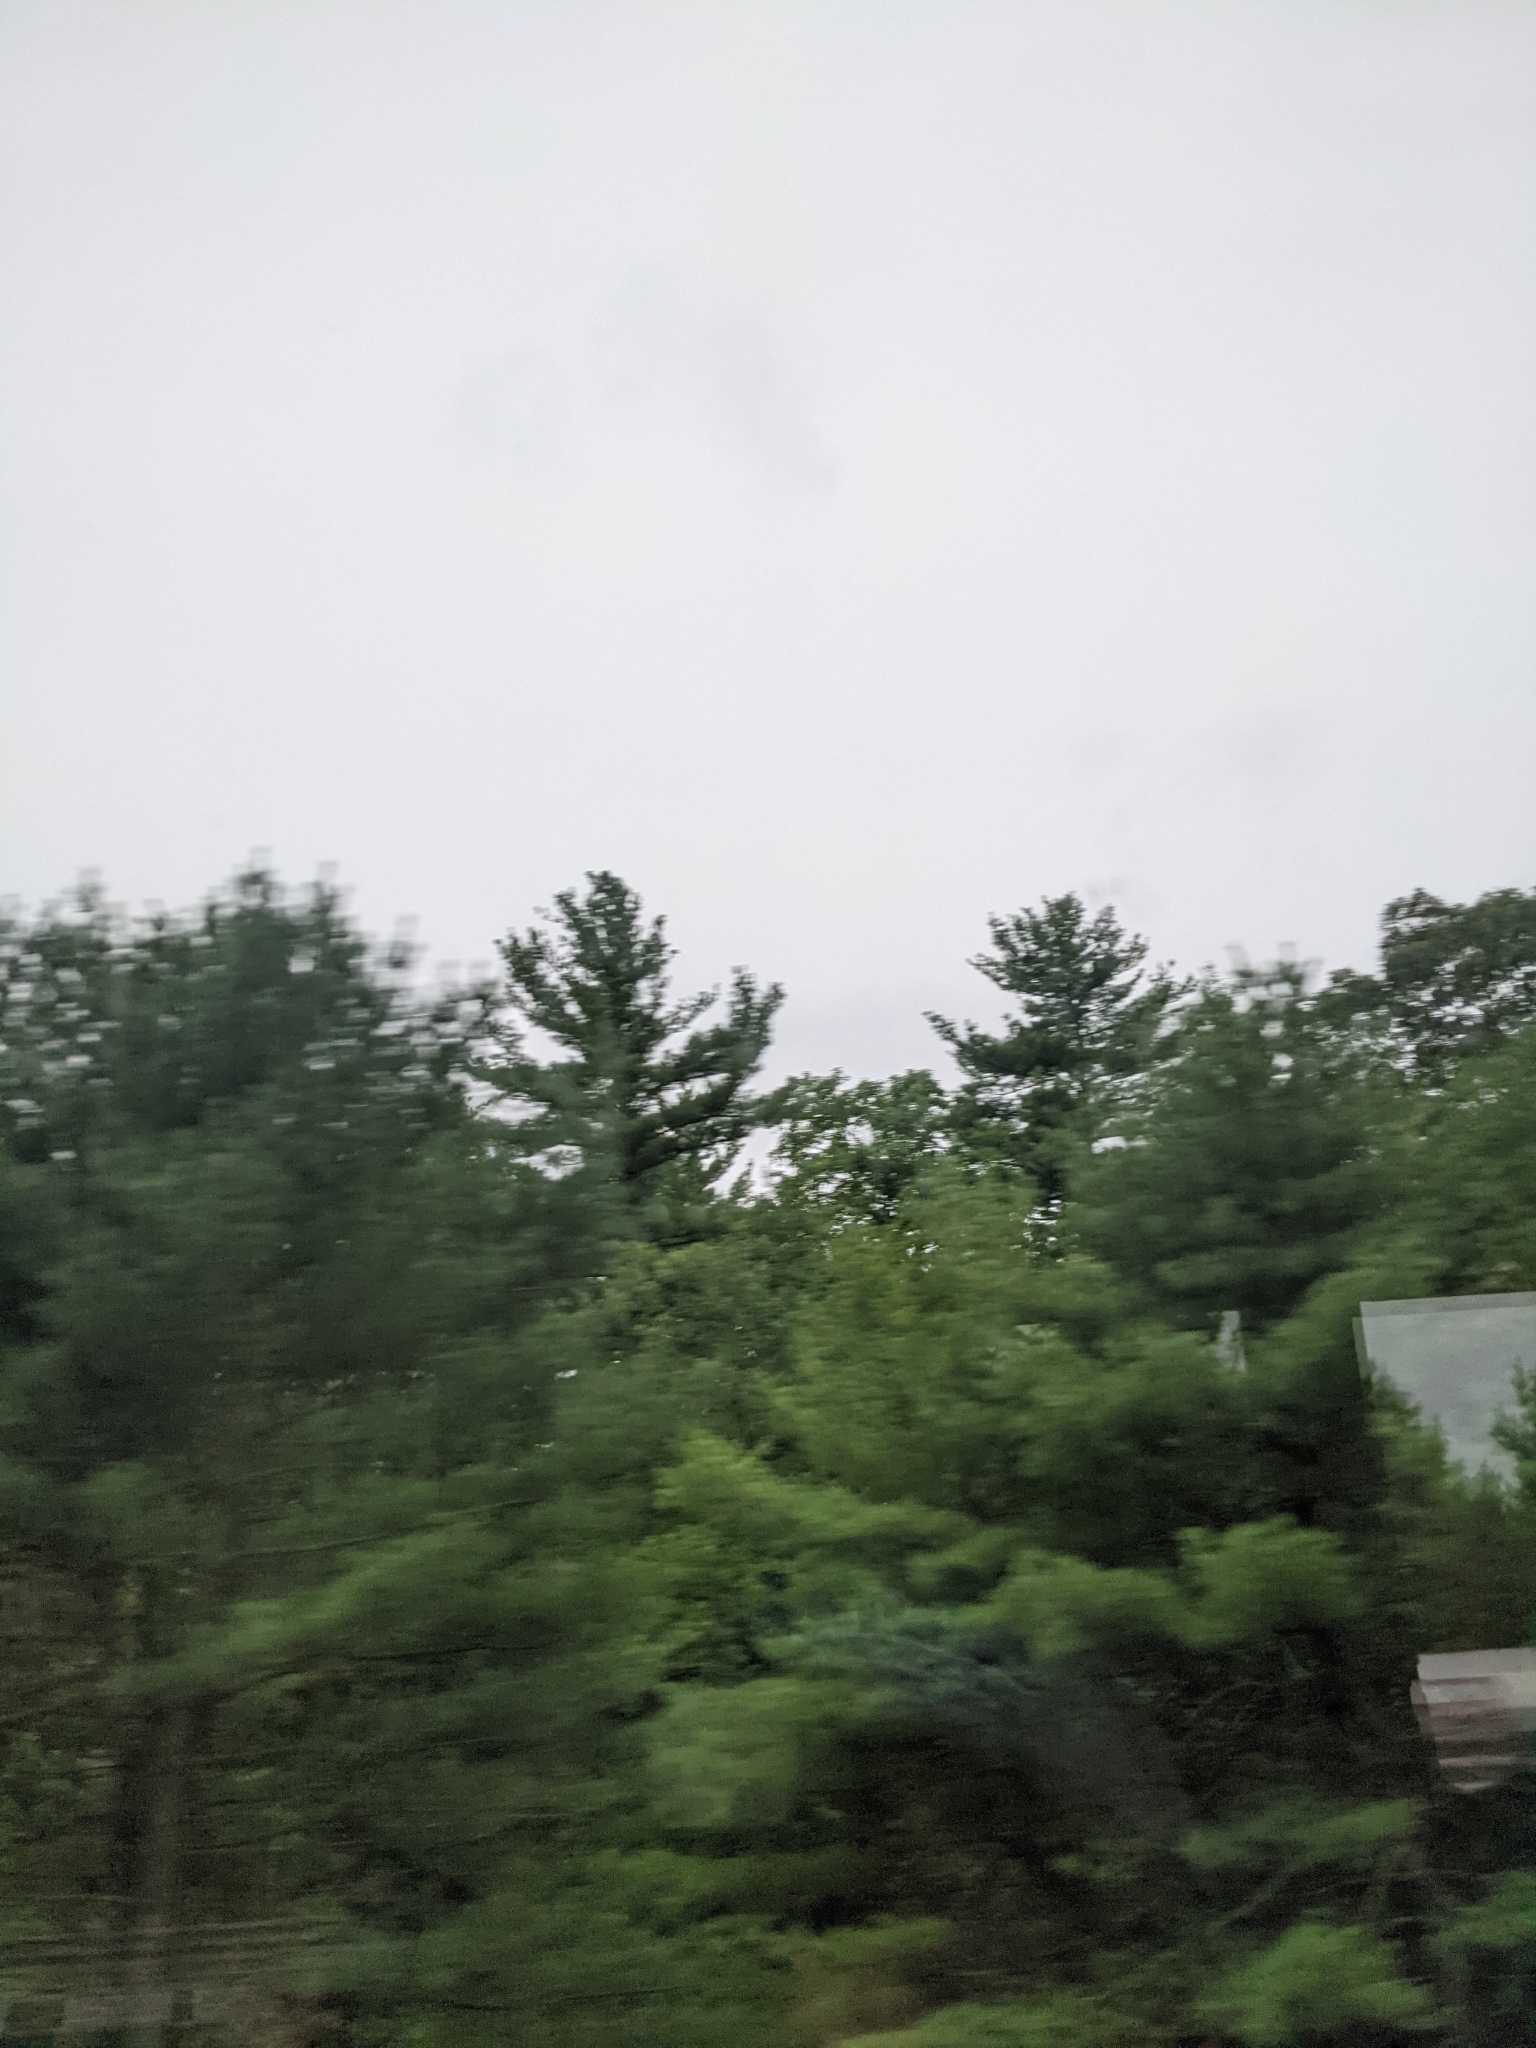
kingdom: Plantae
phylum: Tracheophyta
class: Pinopsida
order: Pinales
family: Pinaceae
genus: Pinus
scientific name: Pinus strobus
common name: Weymouth pine
